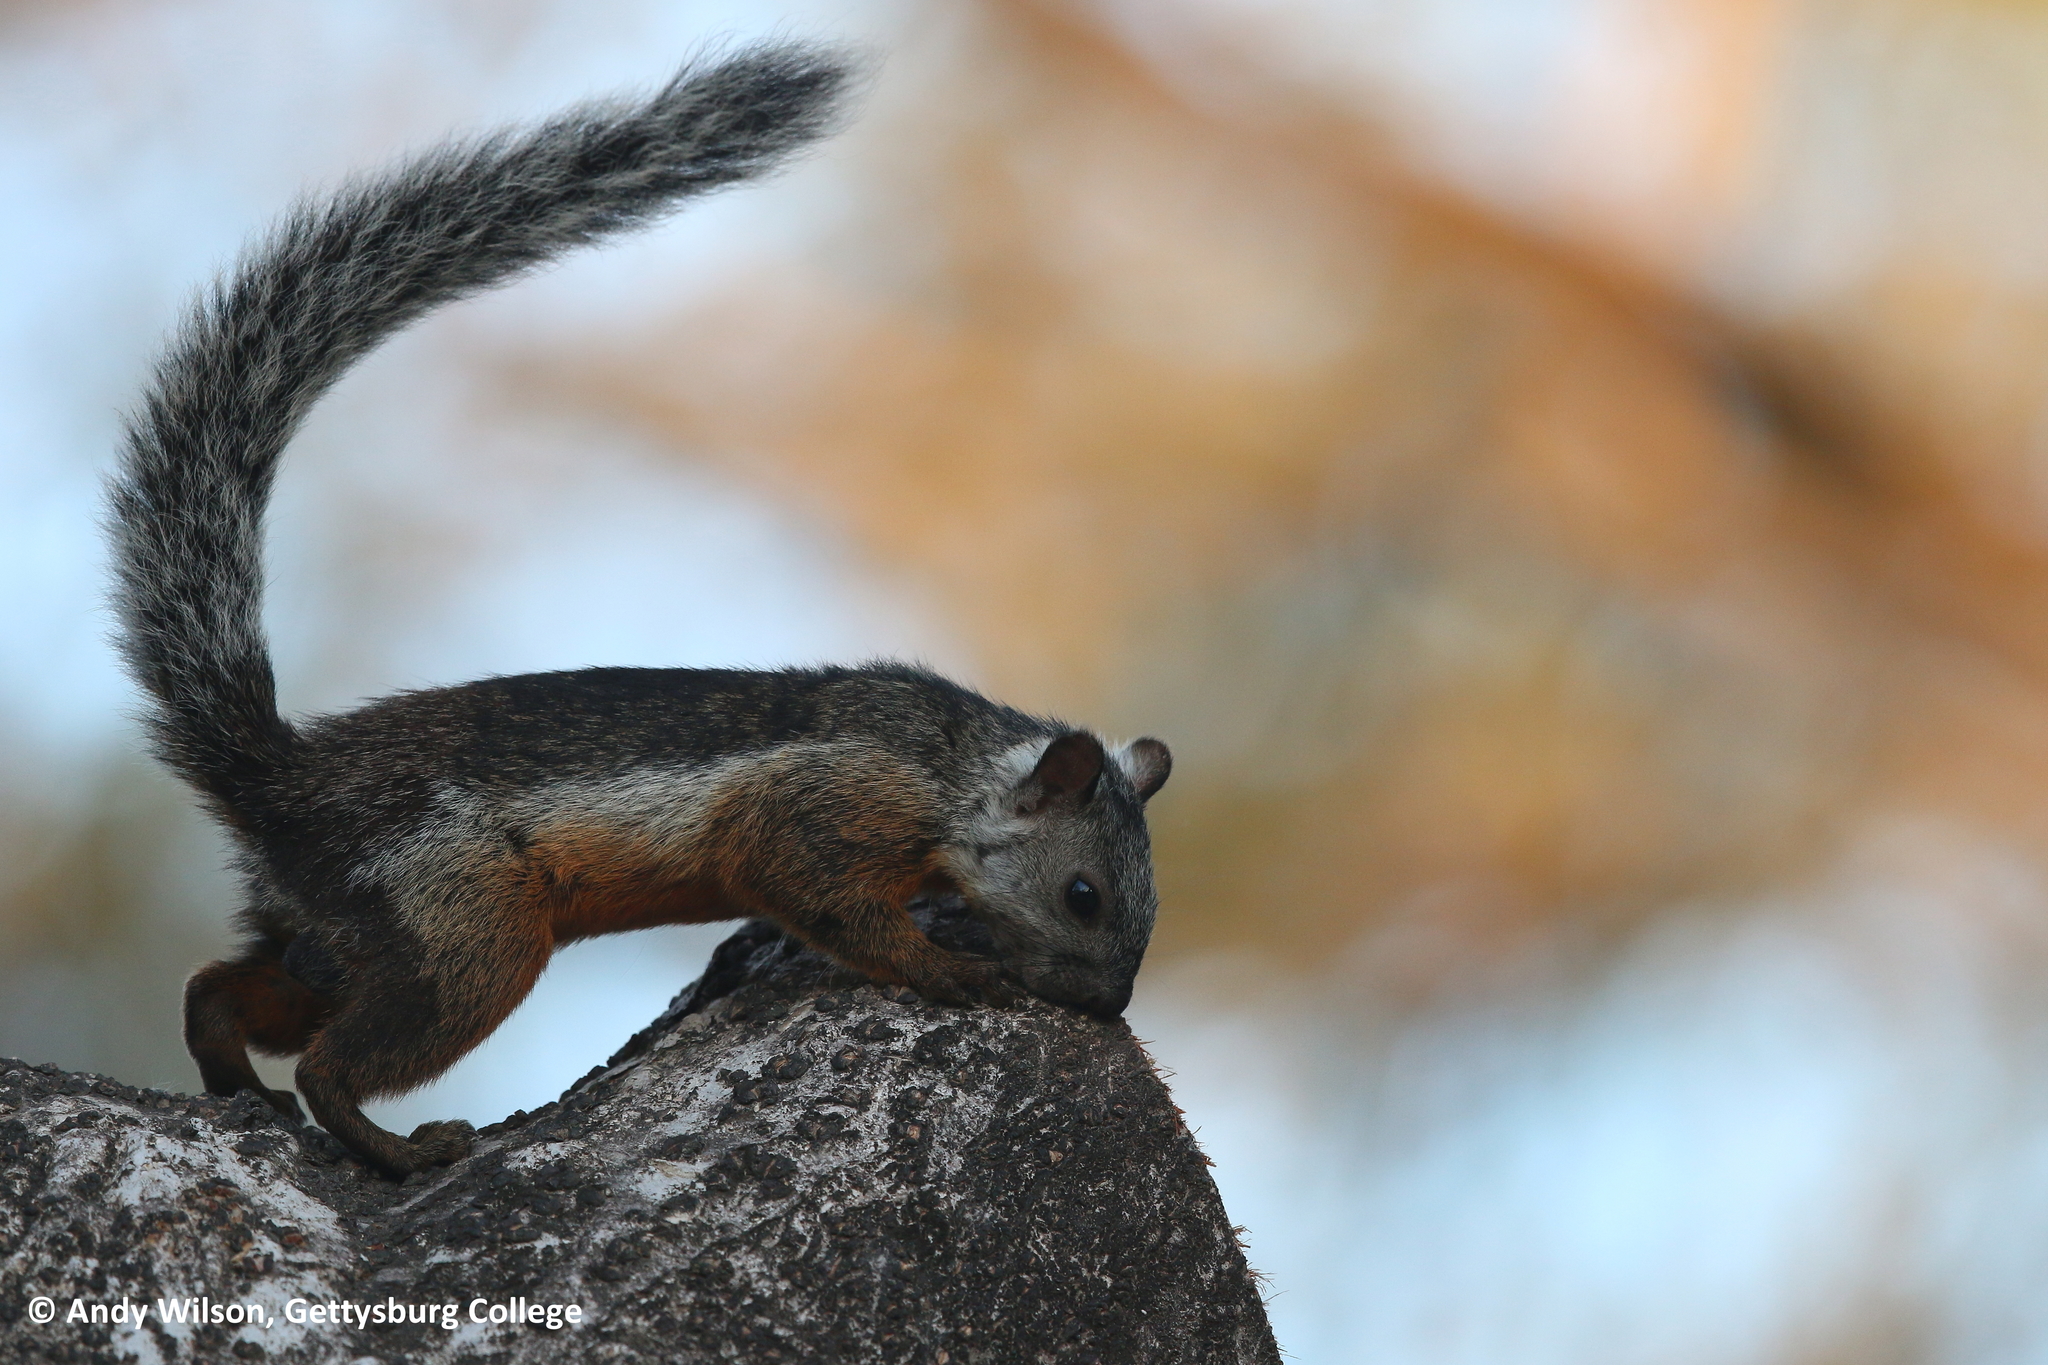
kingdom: Animalia
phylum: Chordata
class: Mammalia
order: Rodentia
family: Sciuridae
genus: Sciurus
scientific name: Sciurus variegatoides
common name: Variegated squirrel
